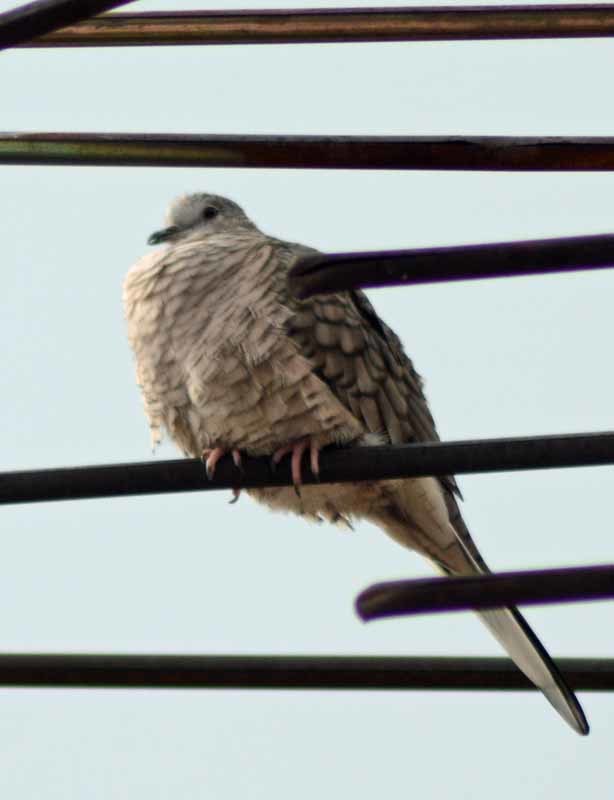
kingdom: Animalia
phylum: Chordata
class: Aves
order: Columbiformes
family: Columbidae
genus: Columbina
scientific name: Columbina inca
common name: Inca dove
